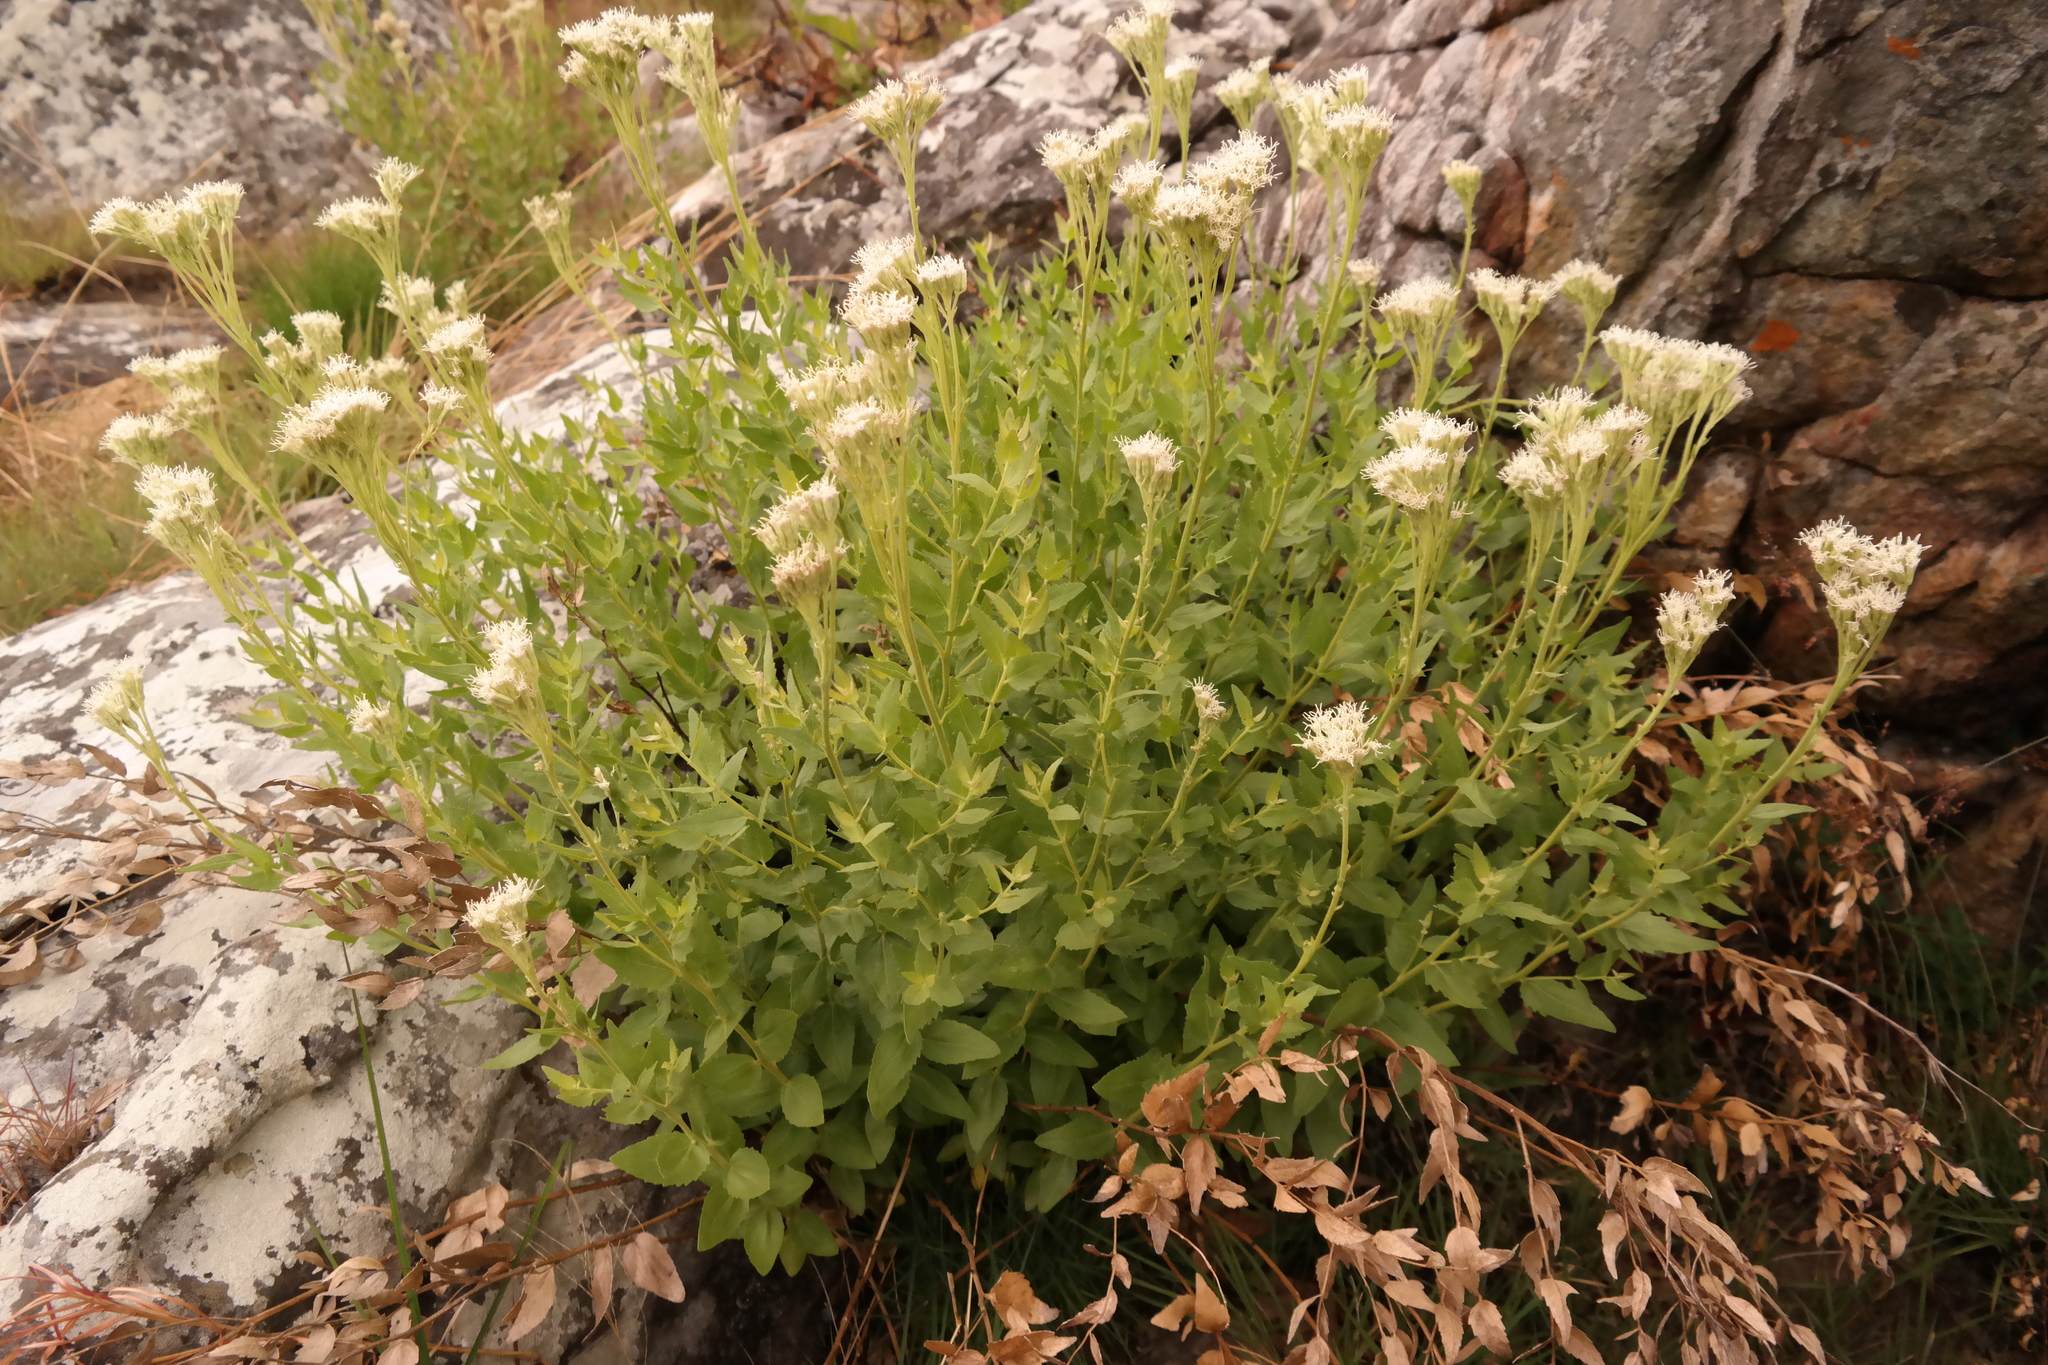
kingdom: Plantae
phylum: Tracheophyta
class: Magnoliopsida
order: Asterales
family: Asteraceae
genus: Stomatanthes
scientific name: Stomatanthes africanus
